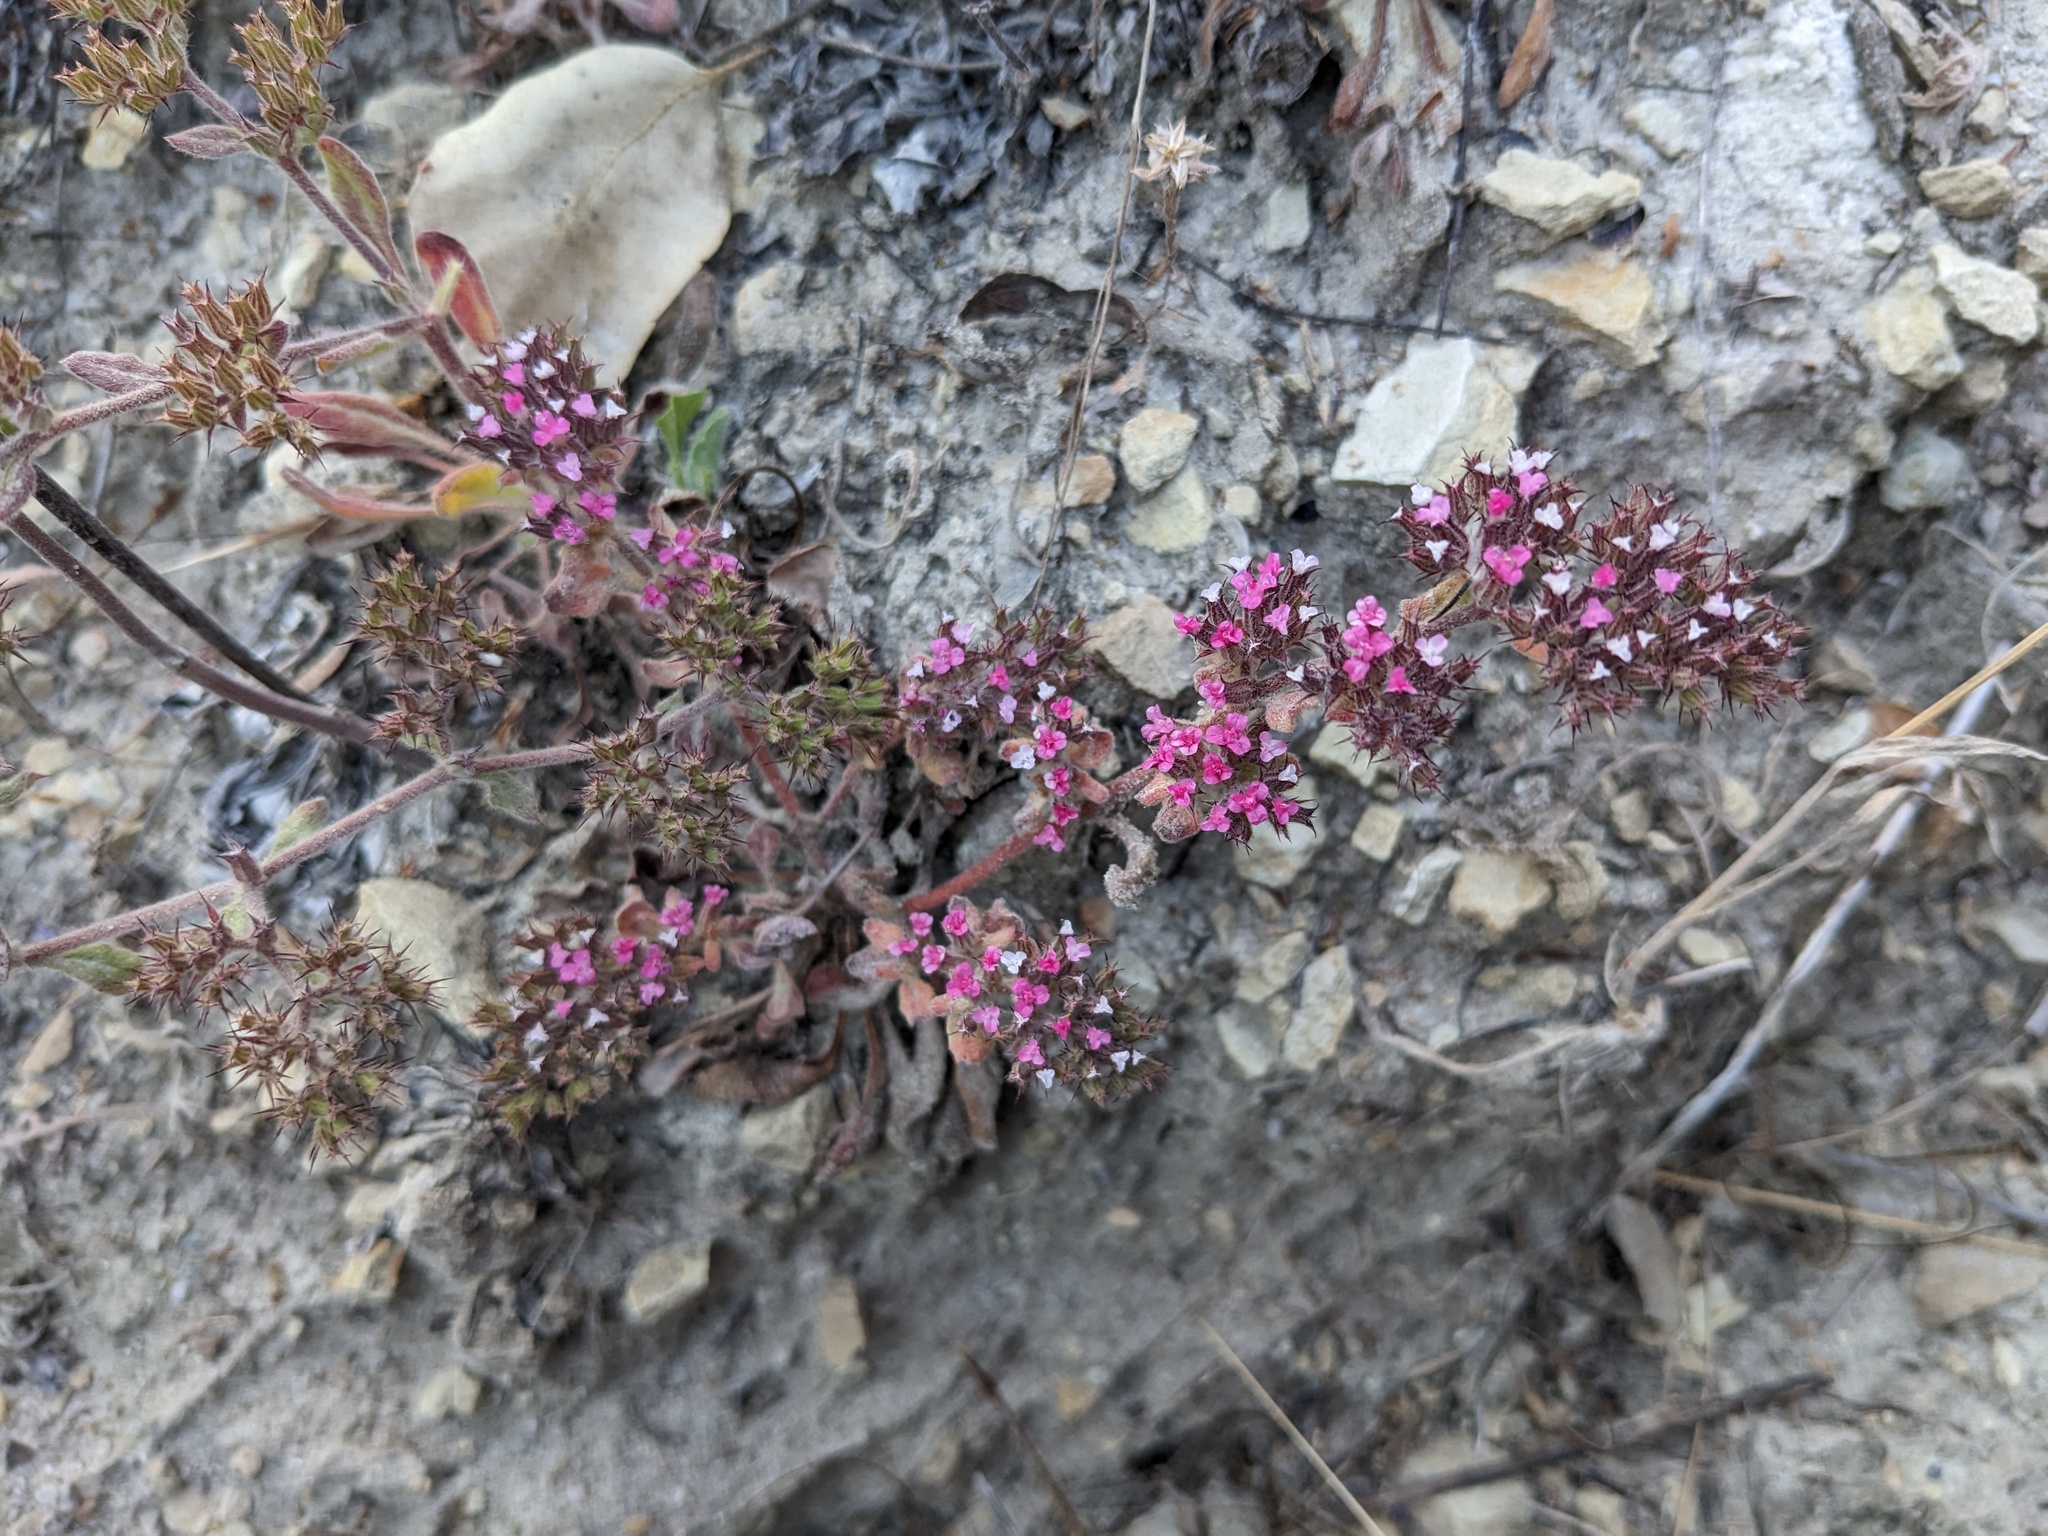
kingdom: Plantae
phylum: Tracheophyta
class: Magnoliopsida
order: Caryophyllales
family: Polygonaceae
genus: Chorizanthe
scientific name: Chorizanthe obovata
